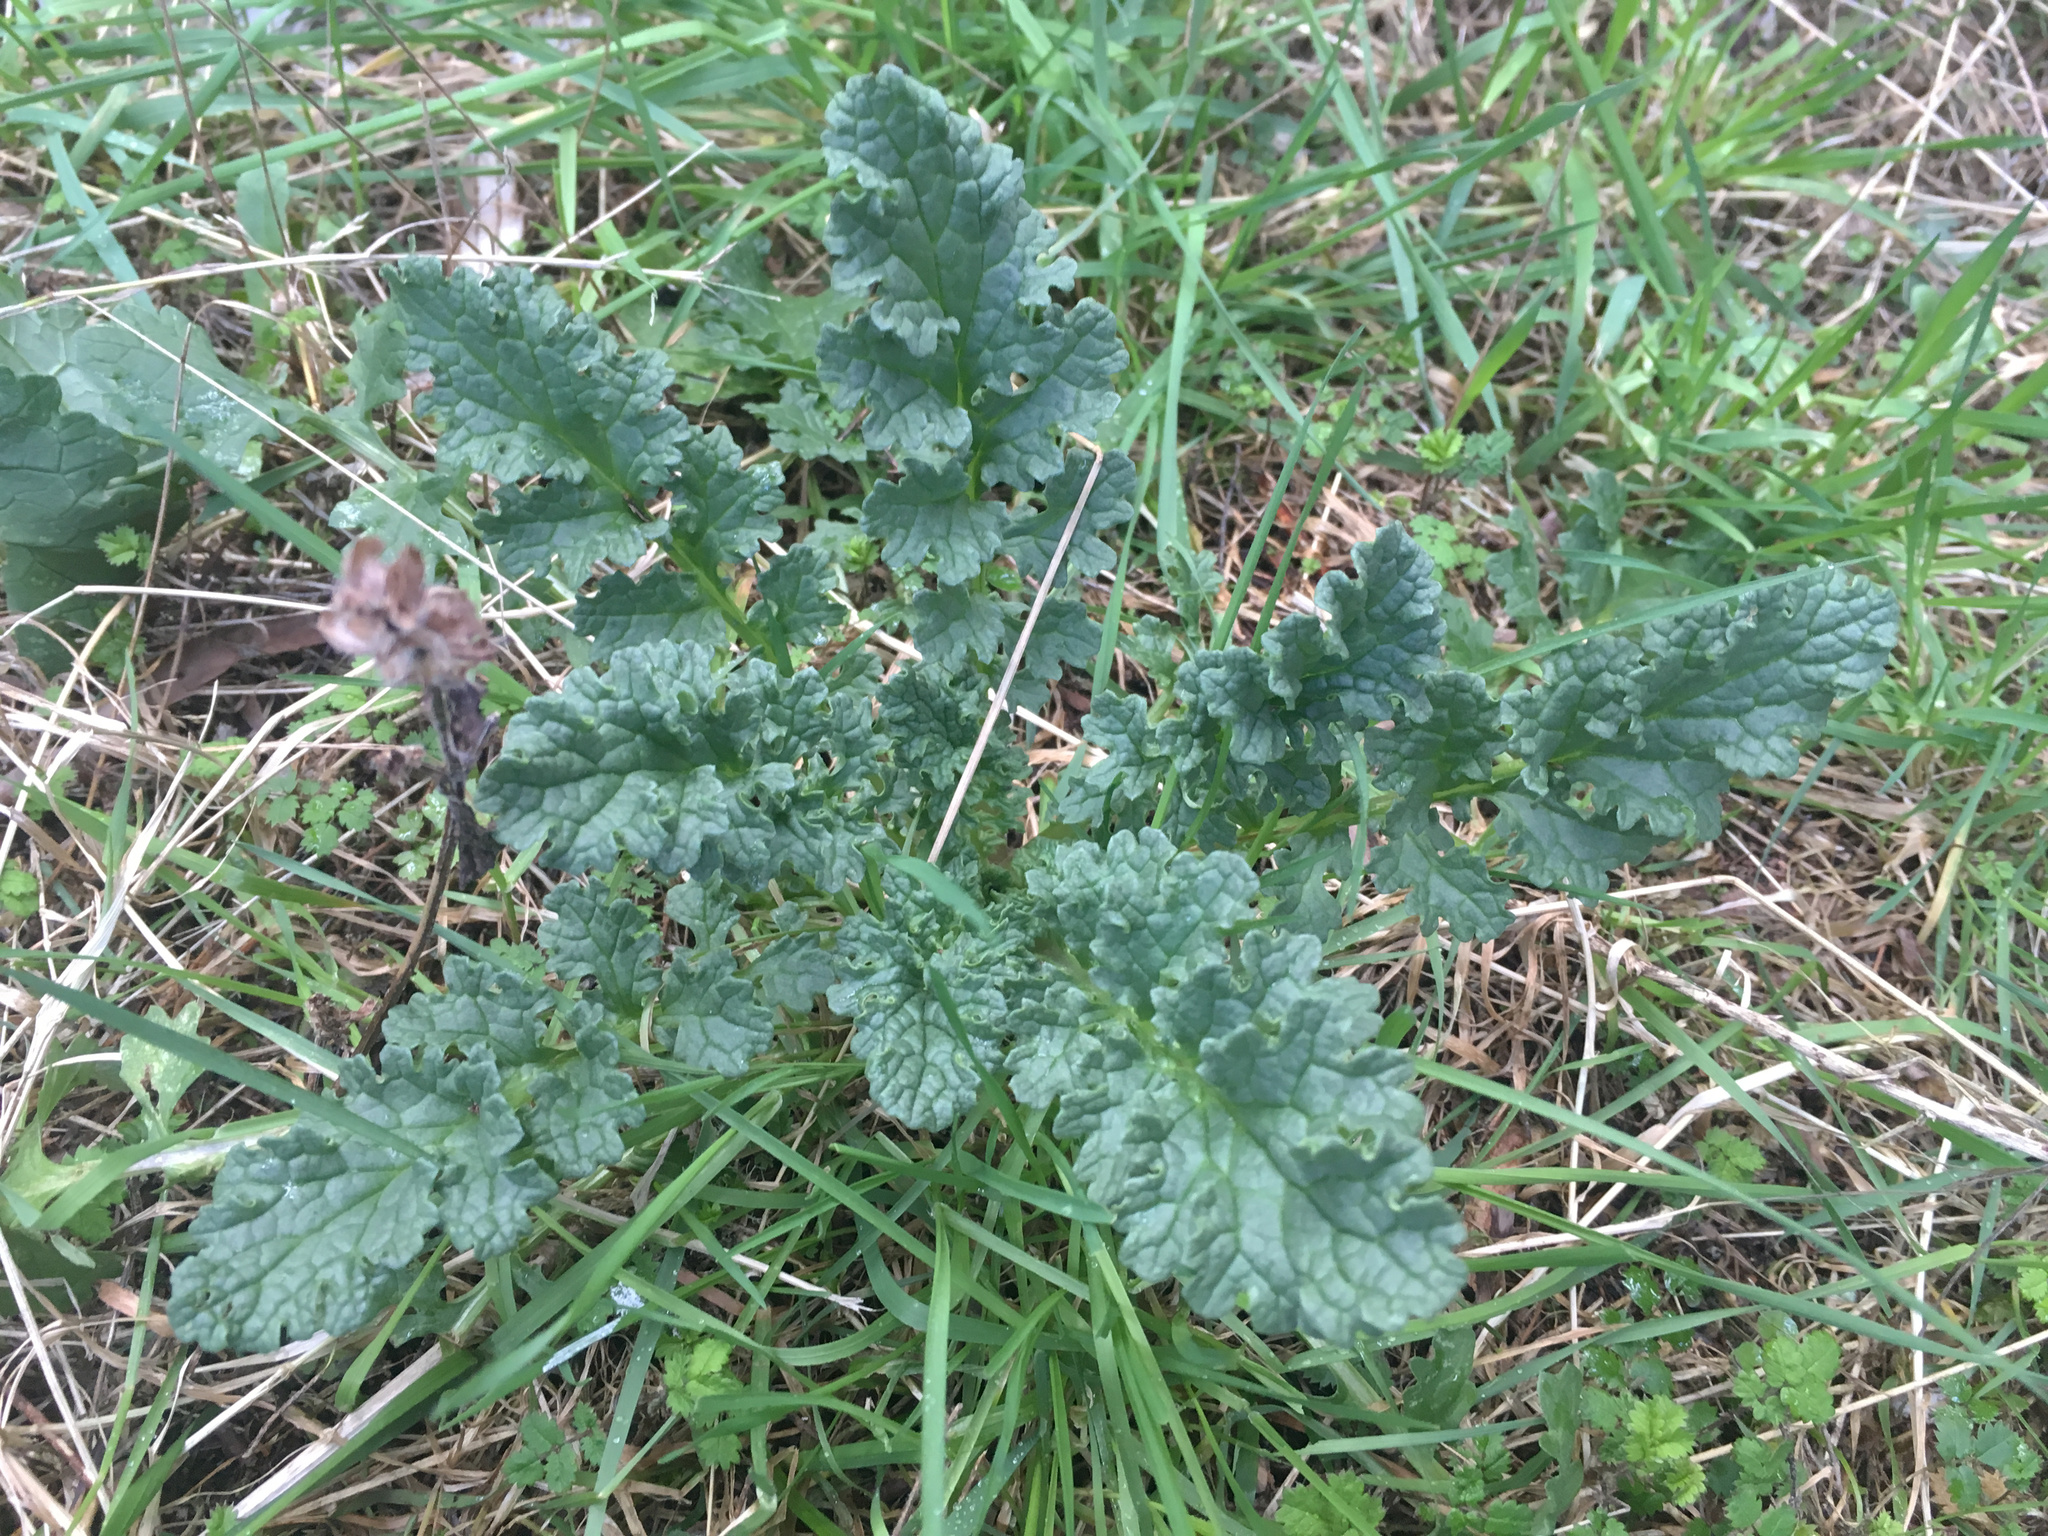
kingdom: Plantae
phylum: Tracheophyta
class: Magnoliopsida
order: Asterales
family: Asteraceae
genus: Jacobaea
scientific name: Jacobaea vulgaris
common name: Stinking willie
